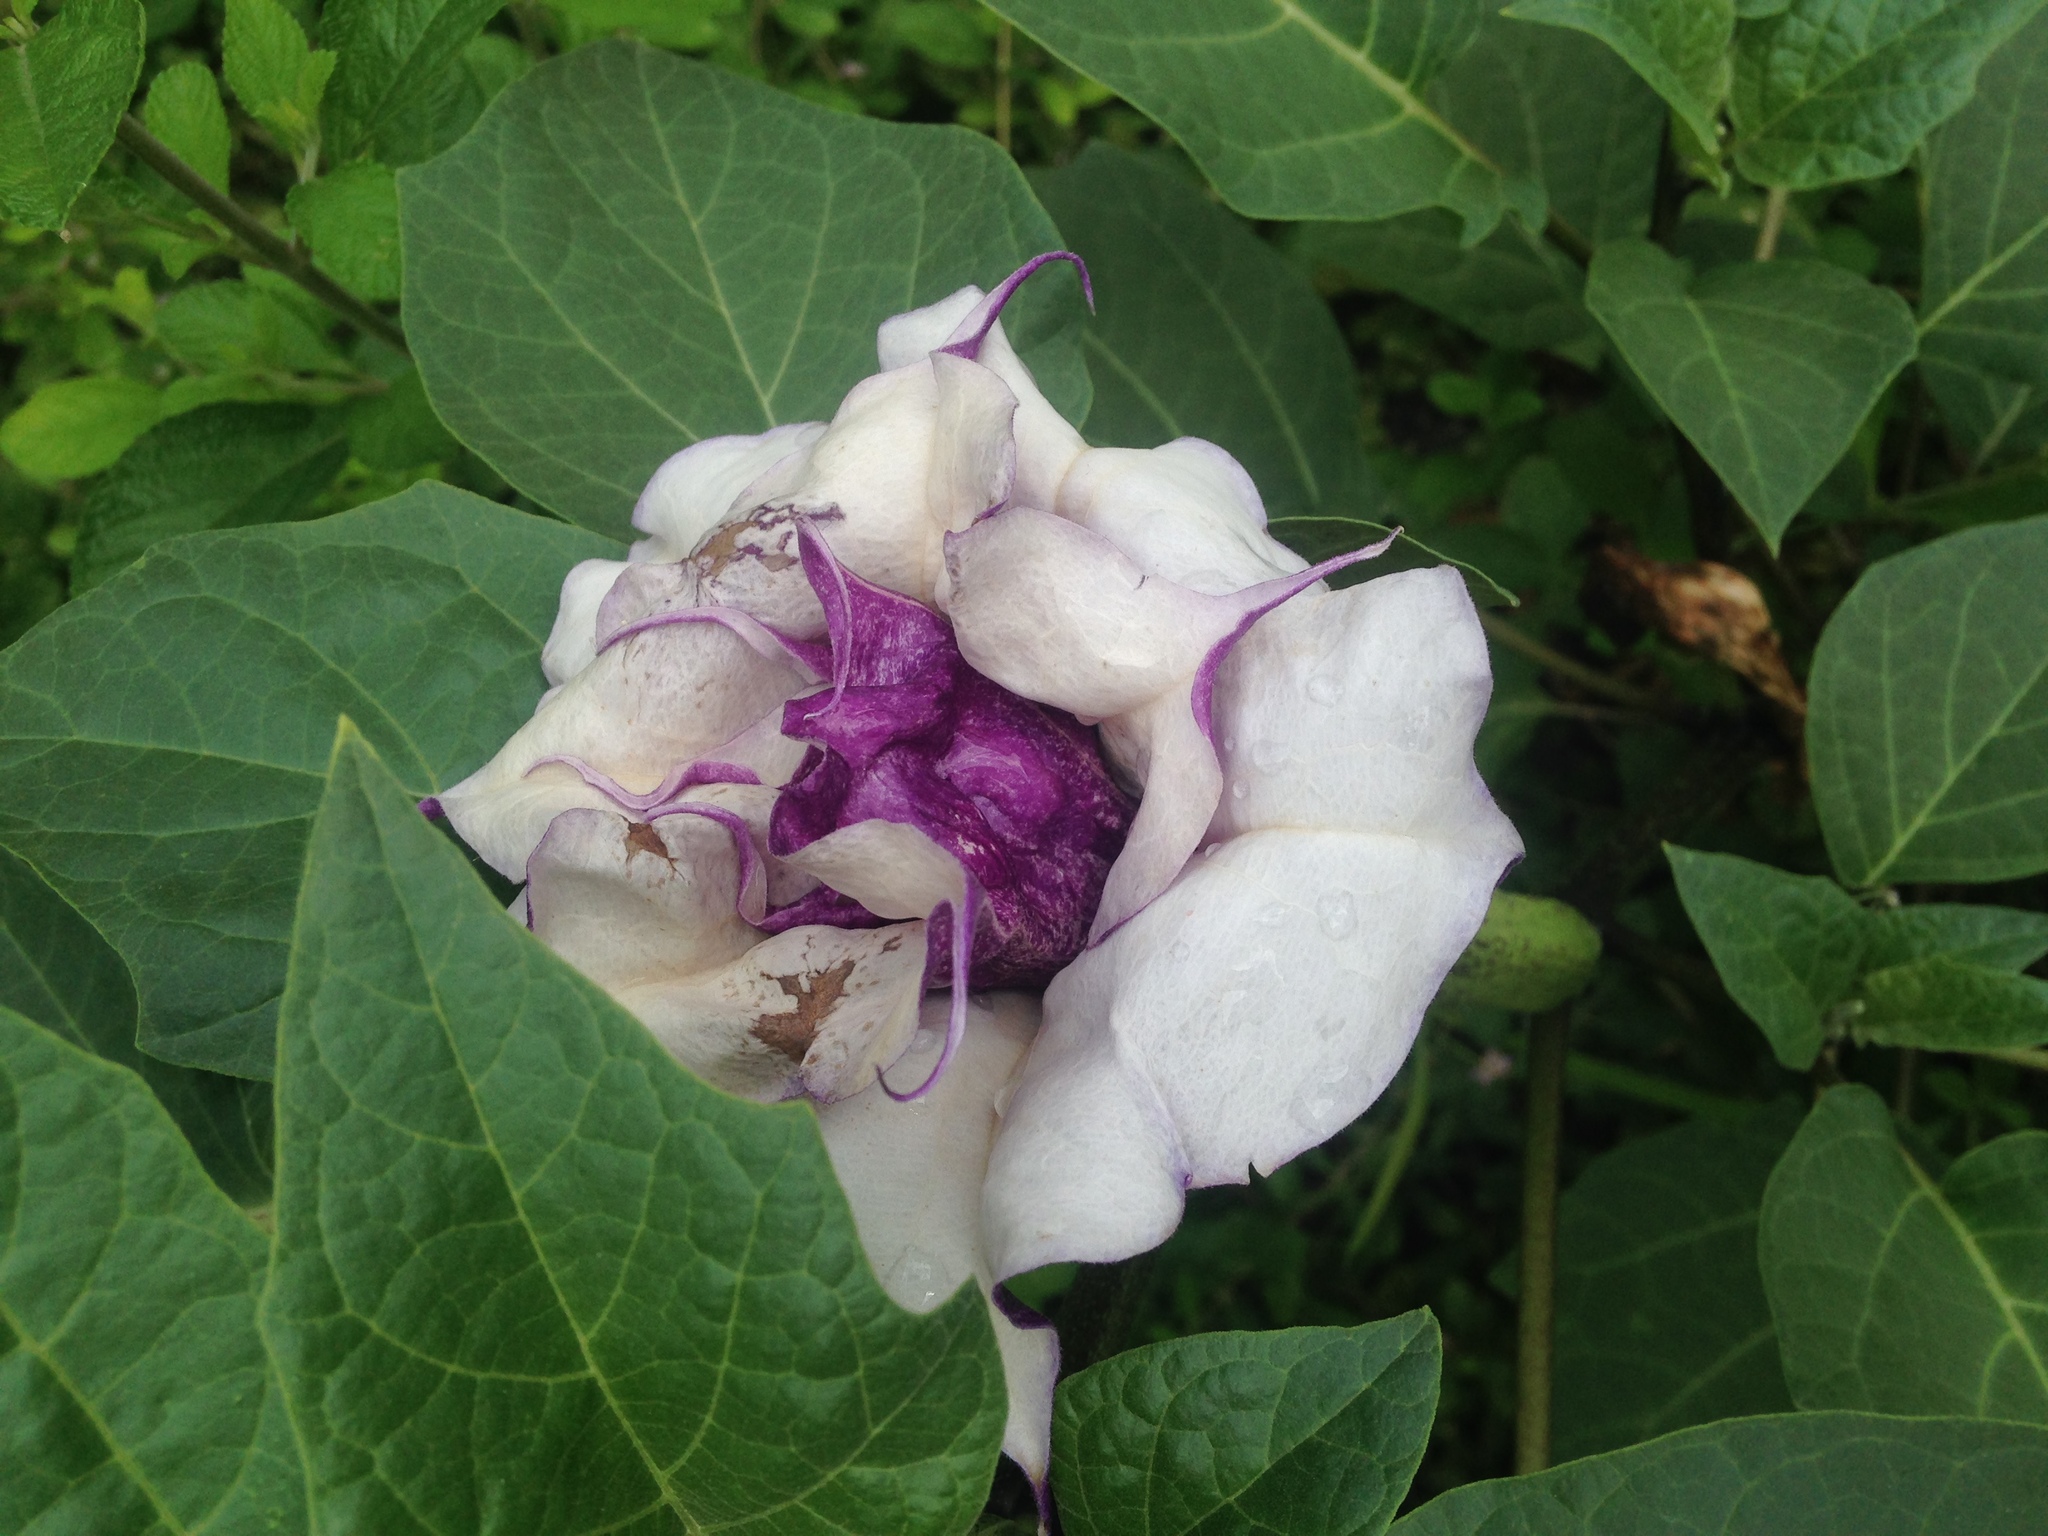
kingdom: Plantae
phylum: Tracheophyta
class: Magnoliopsida
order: Solanales
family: Solanaceae
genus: Datura
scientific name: Datura metel
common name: Jimsonweed
